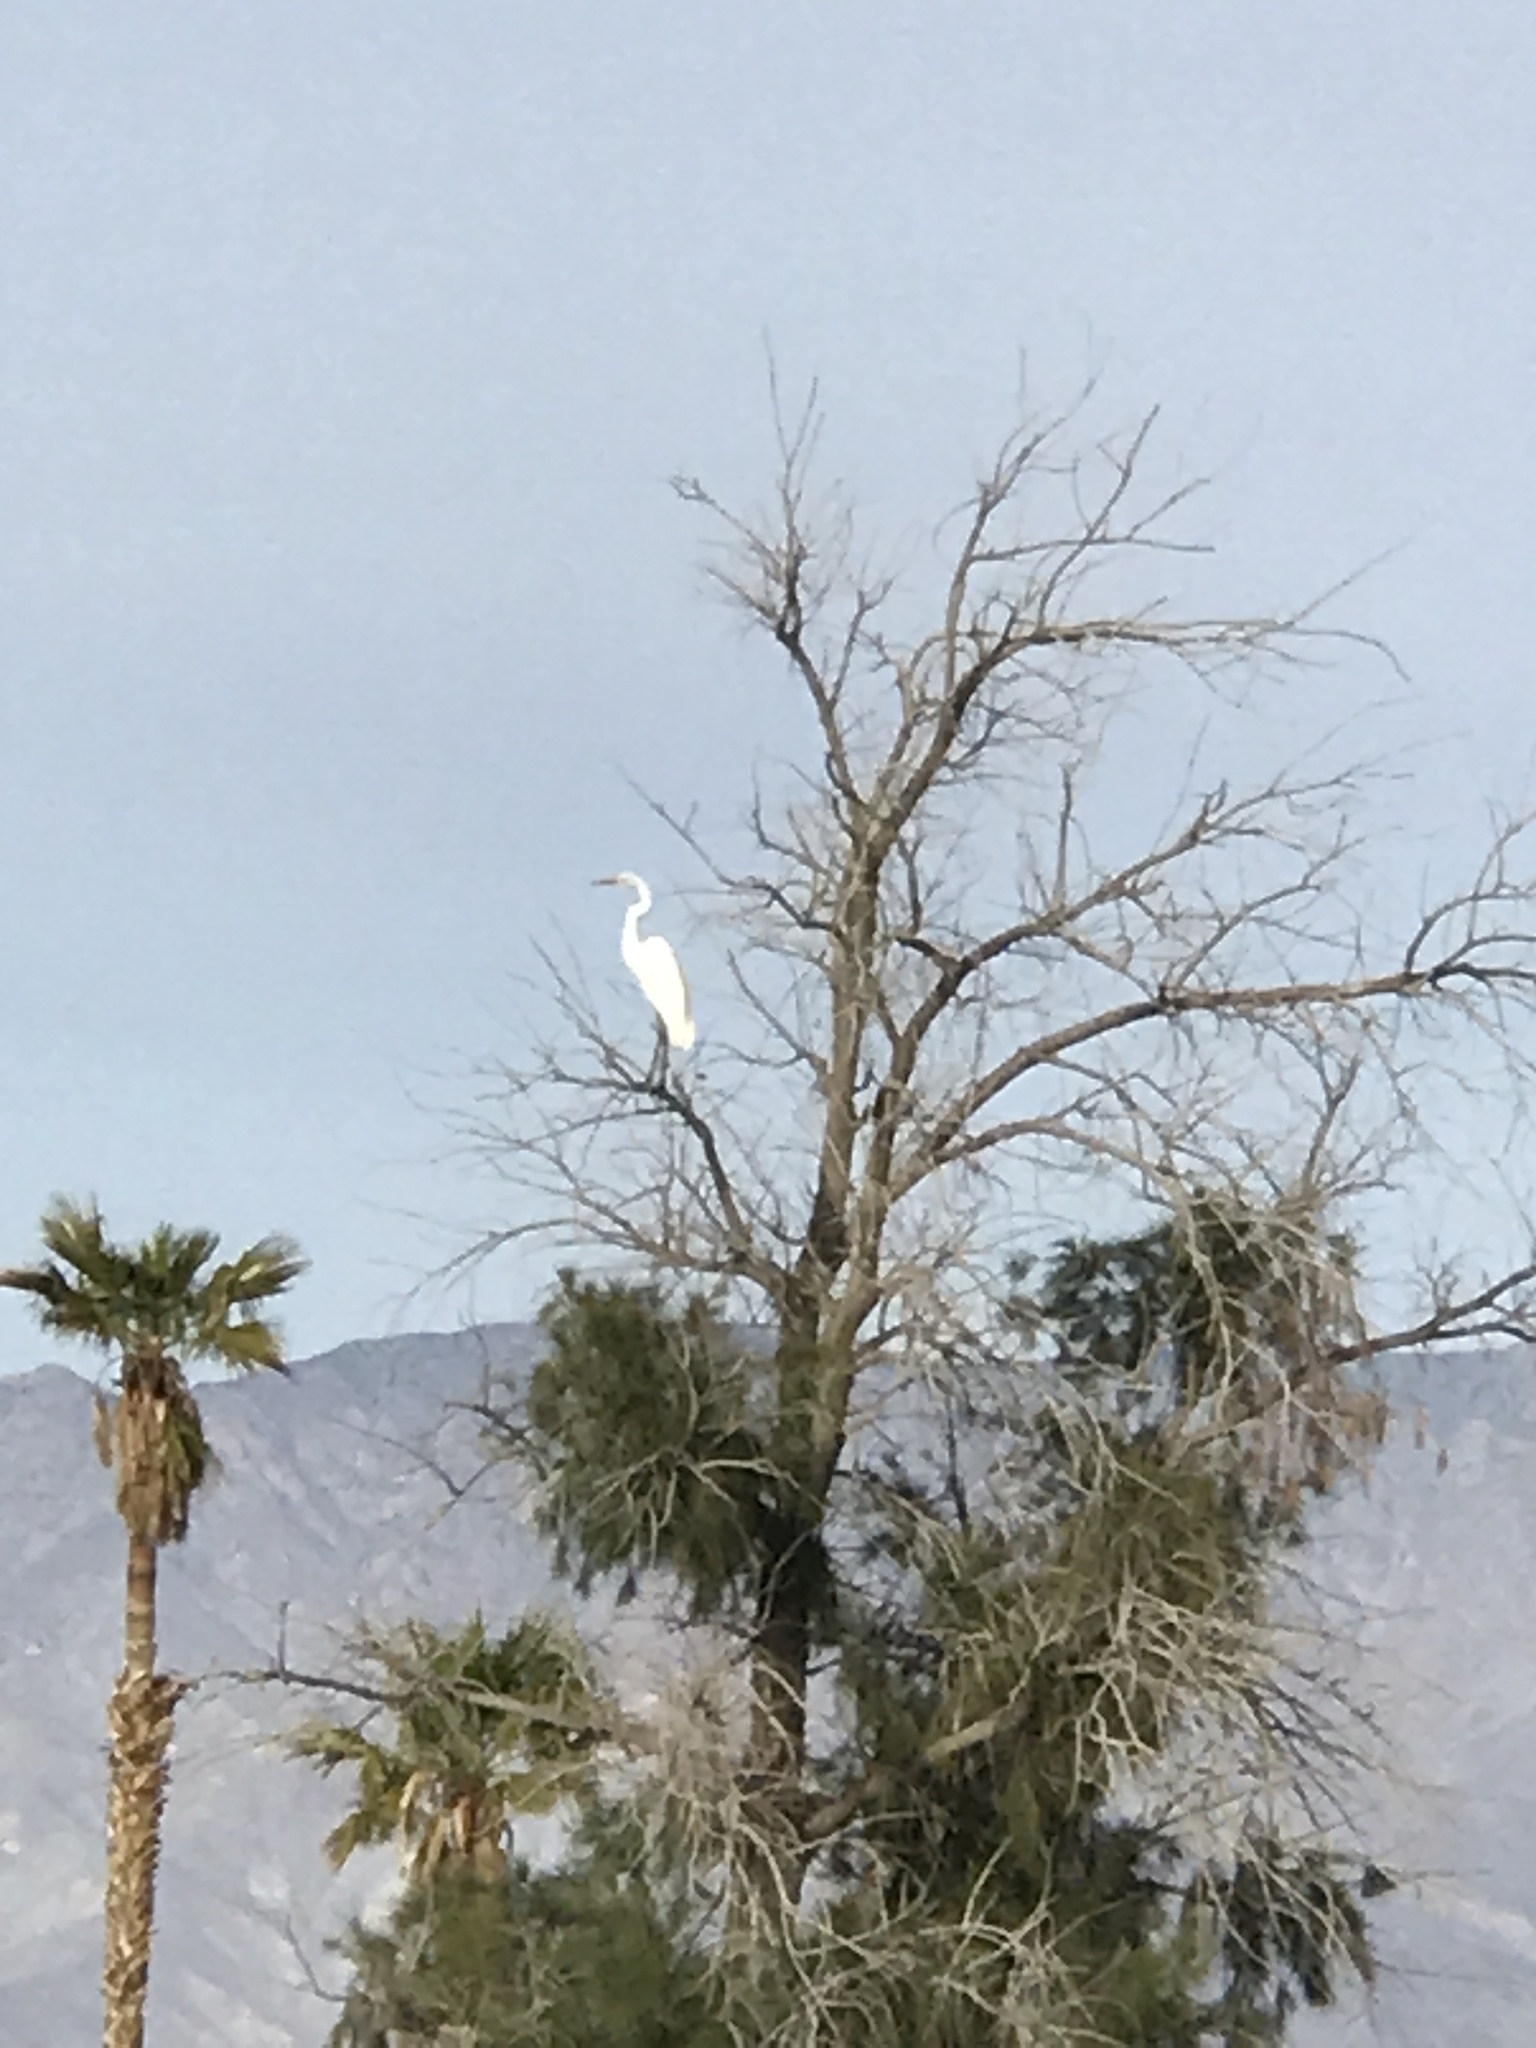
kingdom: Animalia
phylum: Chordata
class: Aves
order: Pelecaniformes
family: Ardeidae
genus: Ardea
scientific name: Ardea alba
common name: Great egret
